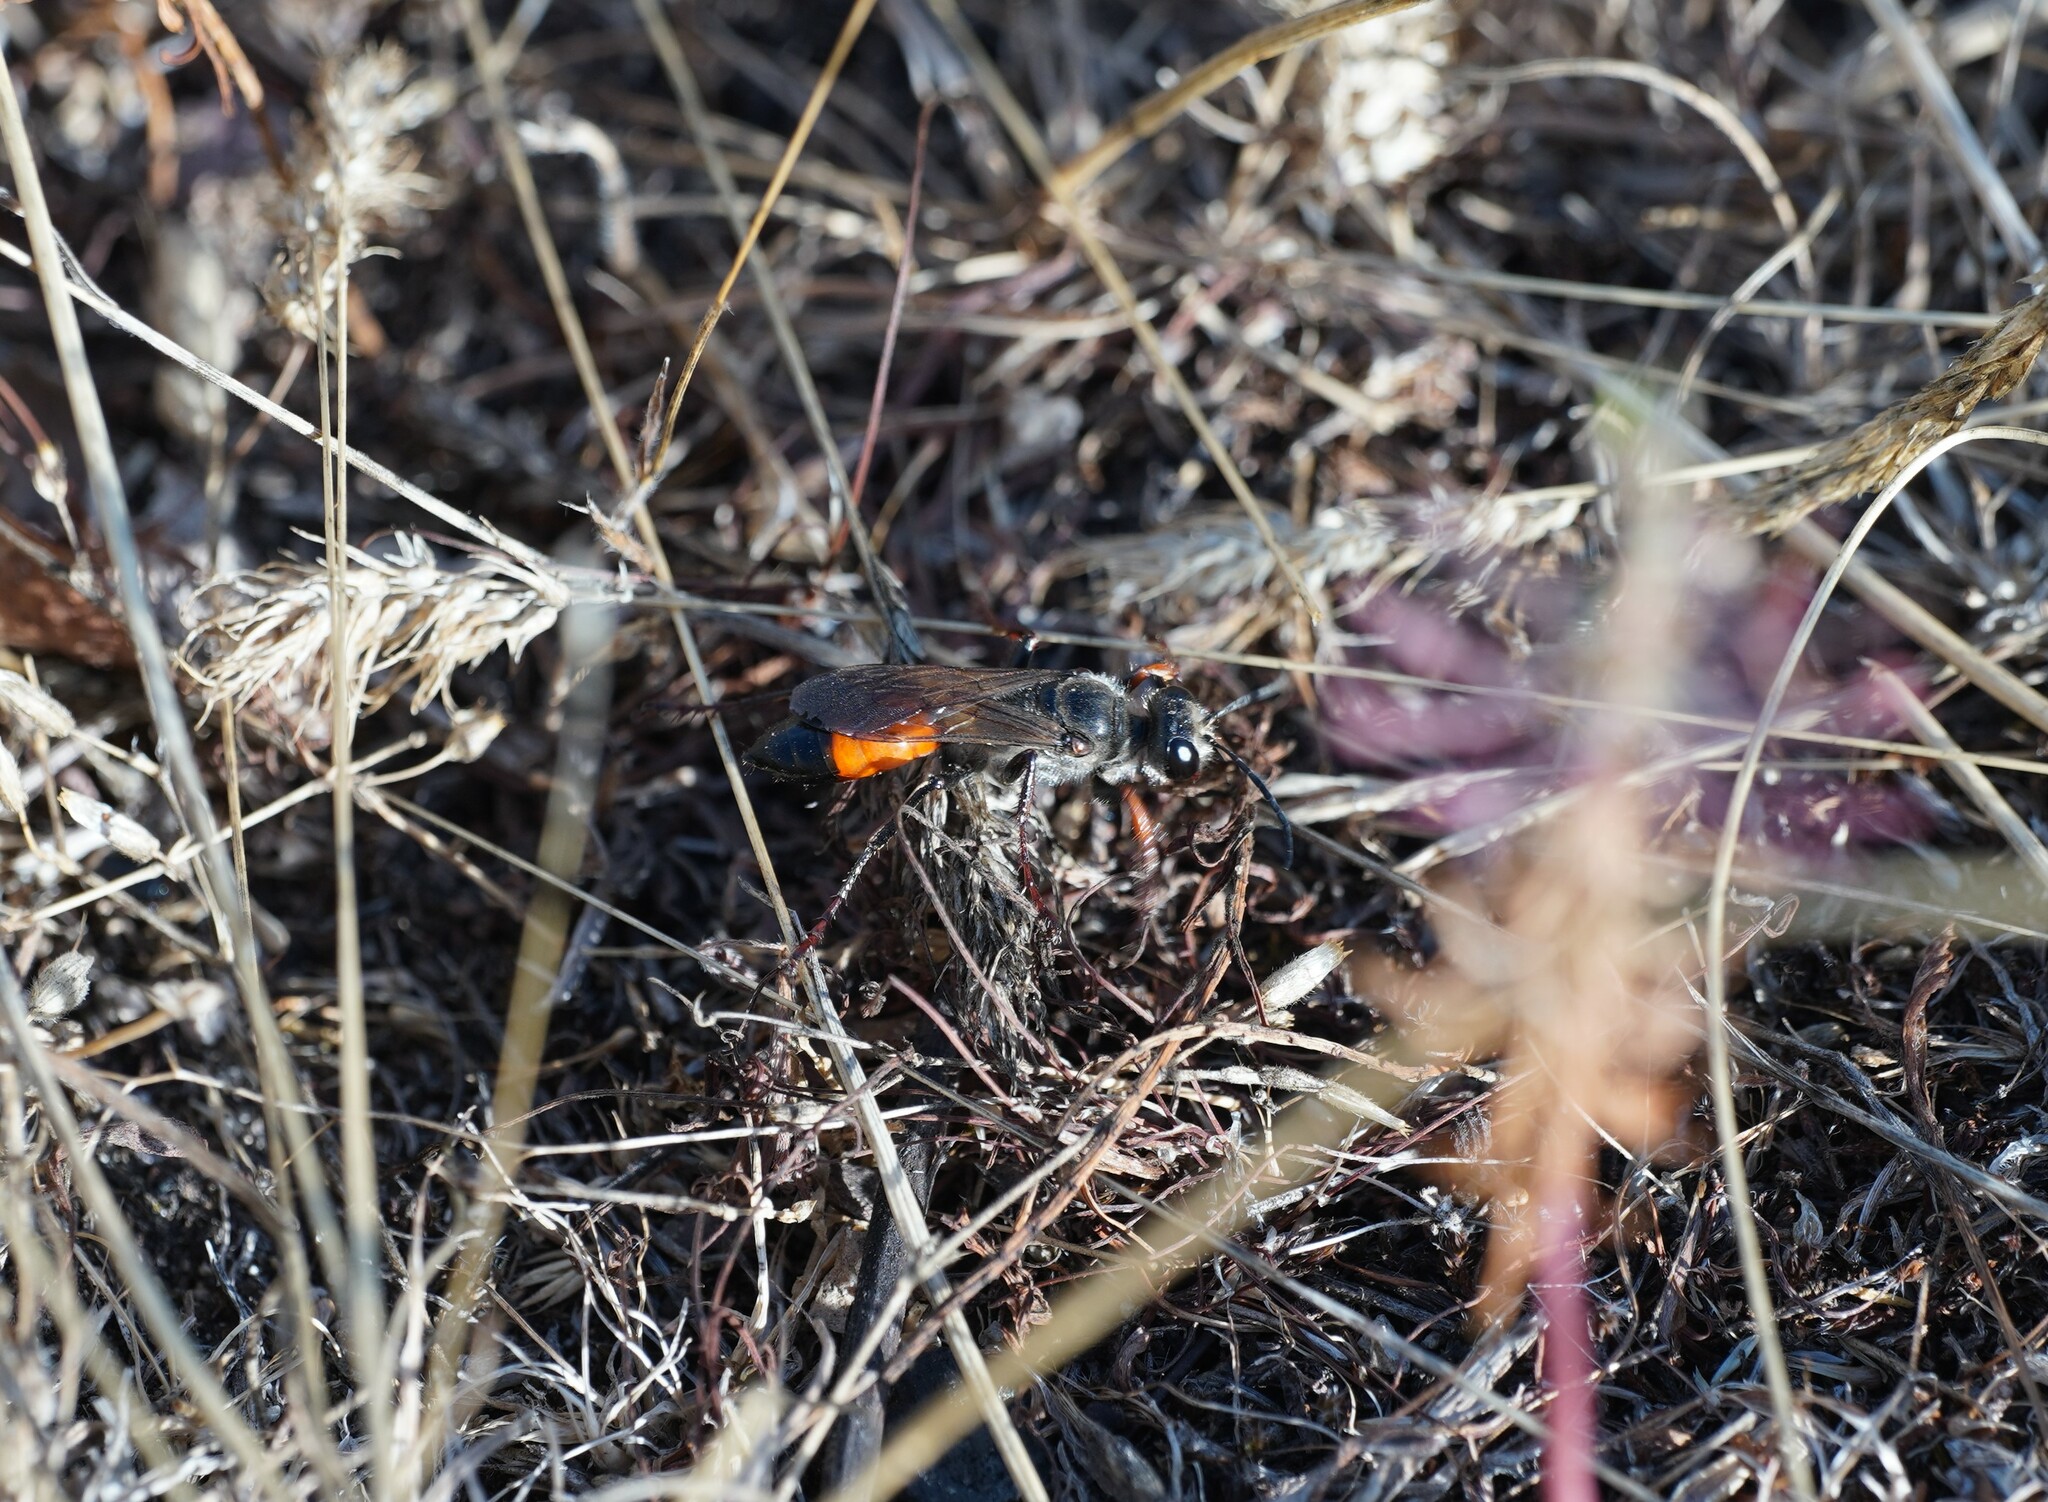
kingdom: Animalia
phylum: Arthropoda
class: Insecta
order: Hymenoptera
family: Sphecidae
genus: Sphex
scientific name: Sphex funerarius
